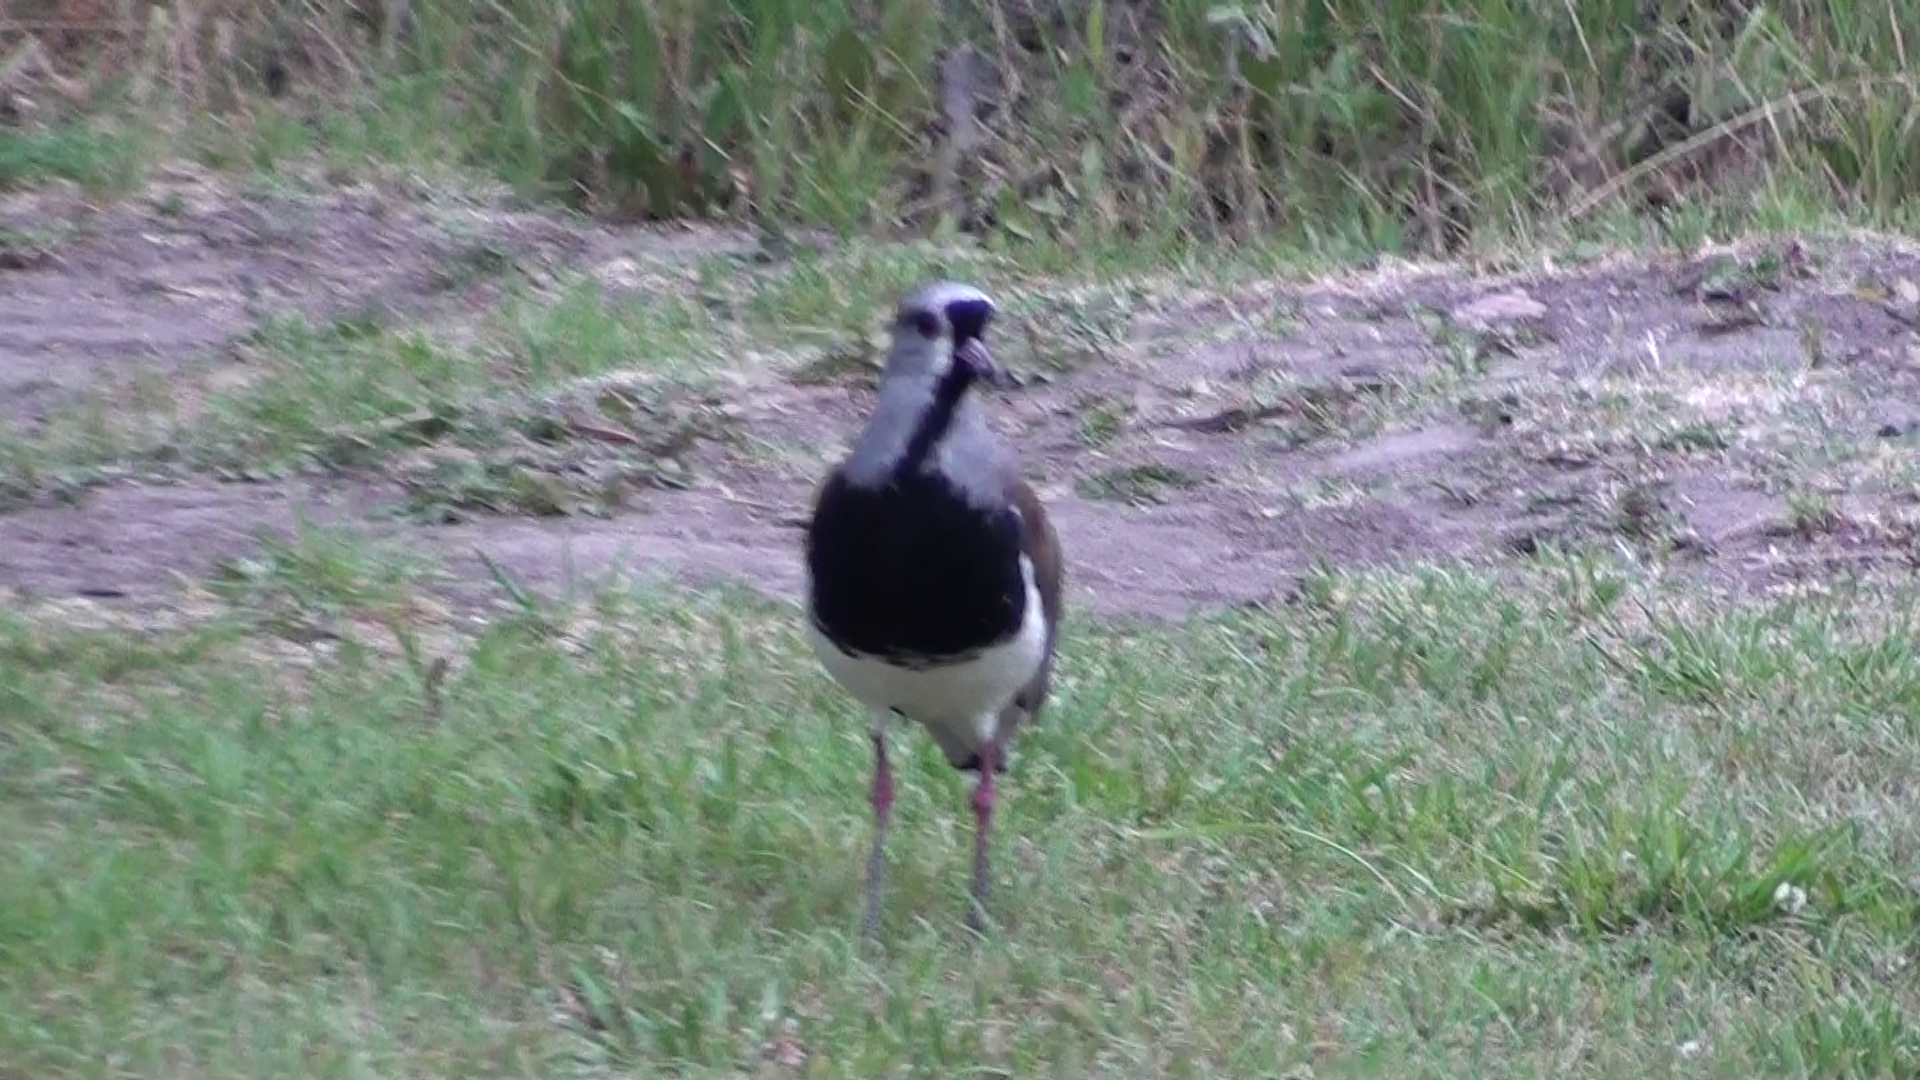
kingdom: Animalia
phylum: Chordata
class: Aves
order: Charadriiformes
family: Charadriidae
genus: Vanellus
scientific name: Vanellus chilensis
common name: Southern lapwing
